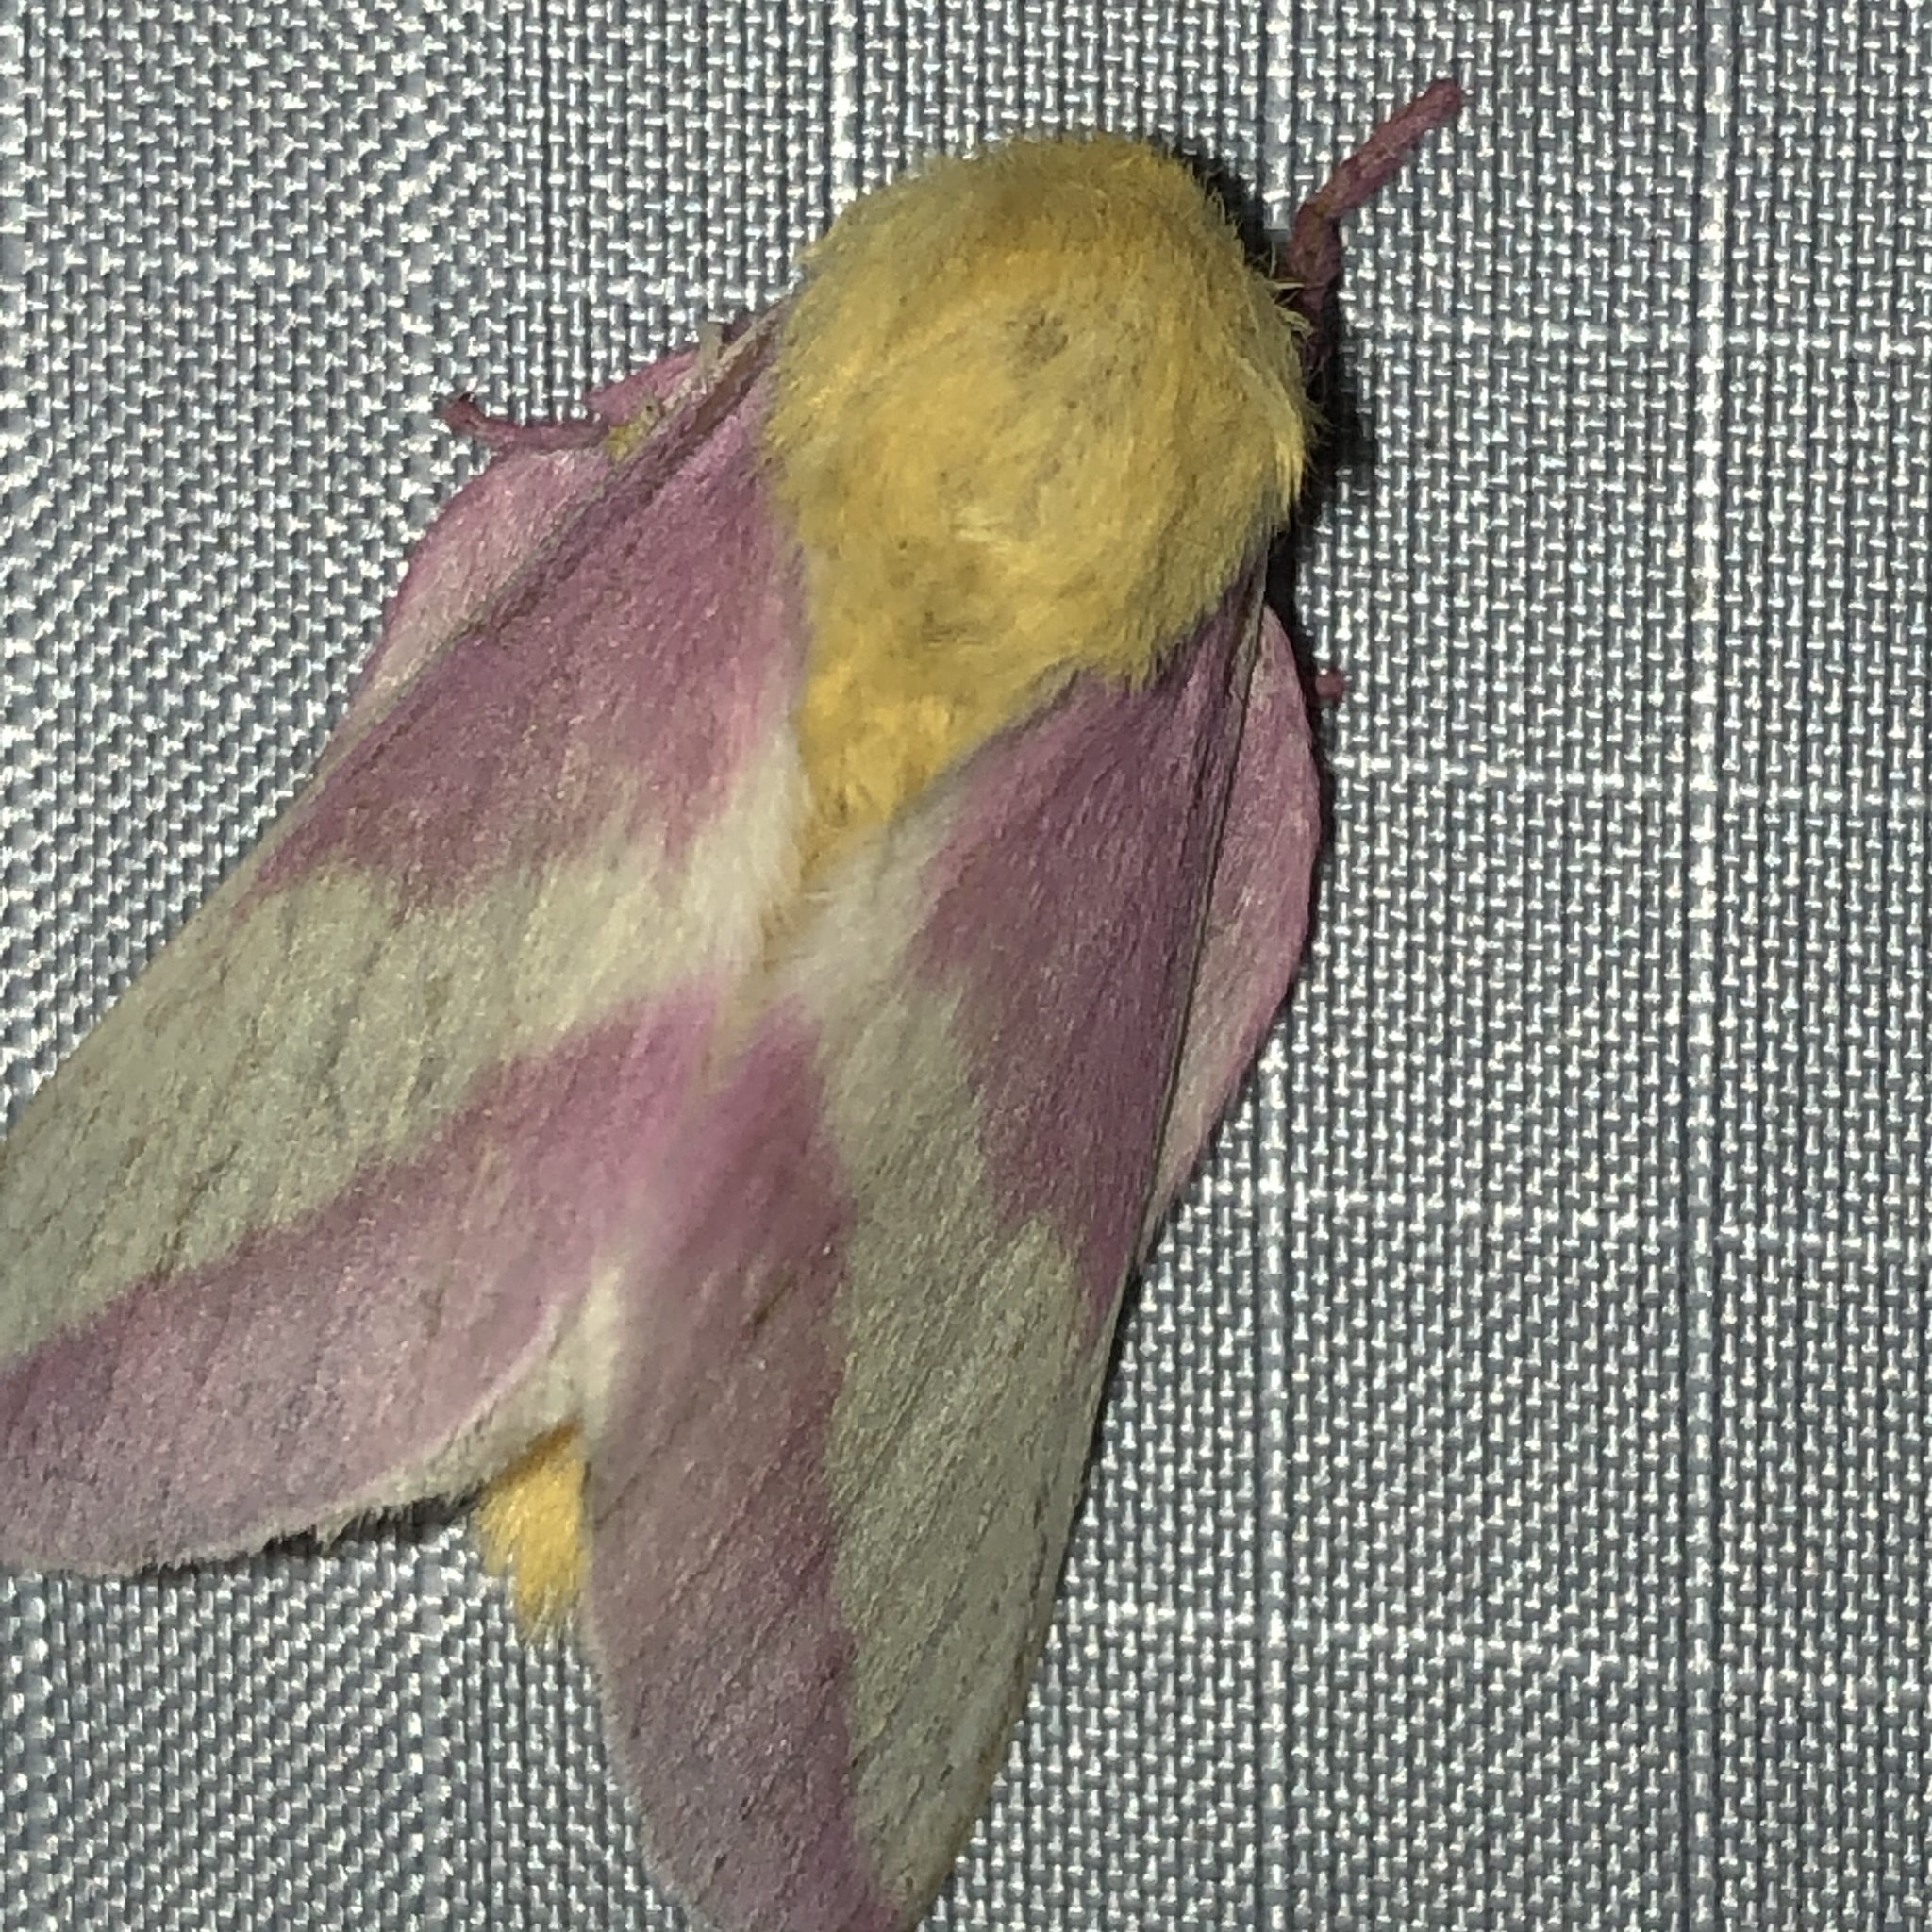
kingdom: Animalia
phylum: Arthropoda
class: Insecta
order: Lepidoptera
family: Saturniidae
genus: Dryocampa
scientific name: Dryocampa rubicunda
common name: Rosy maple moth
